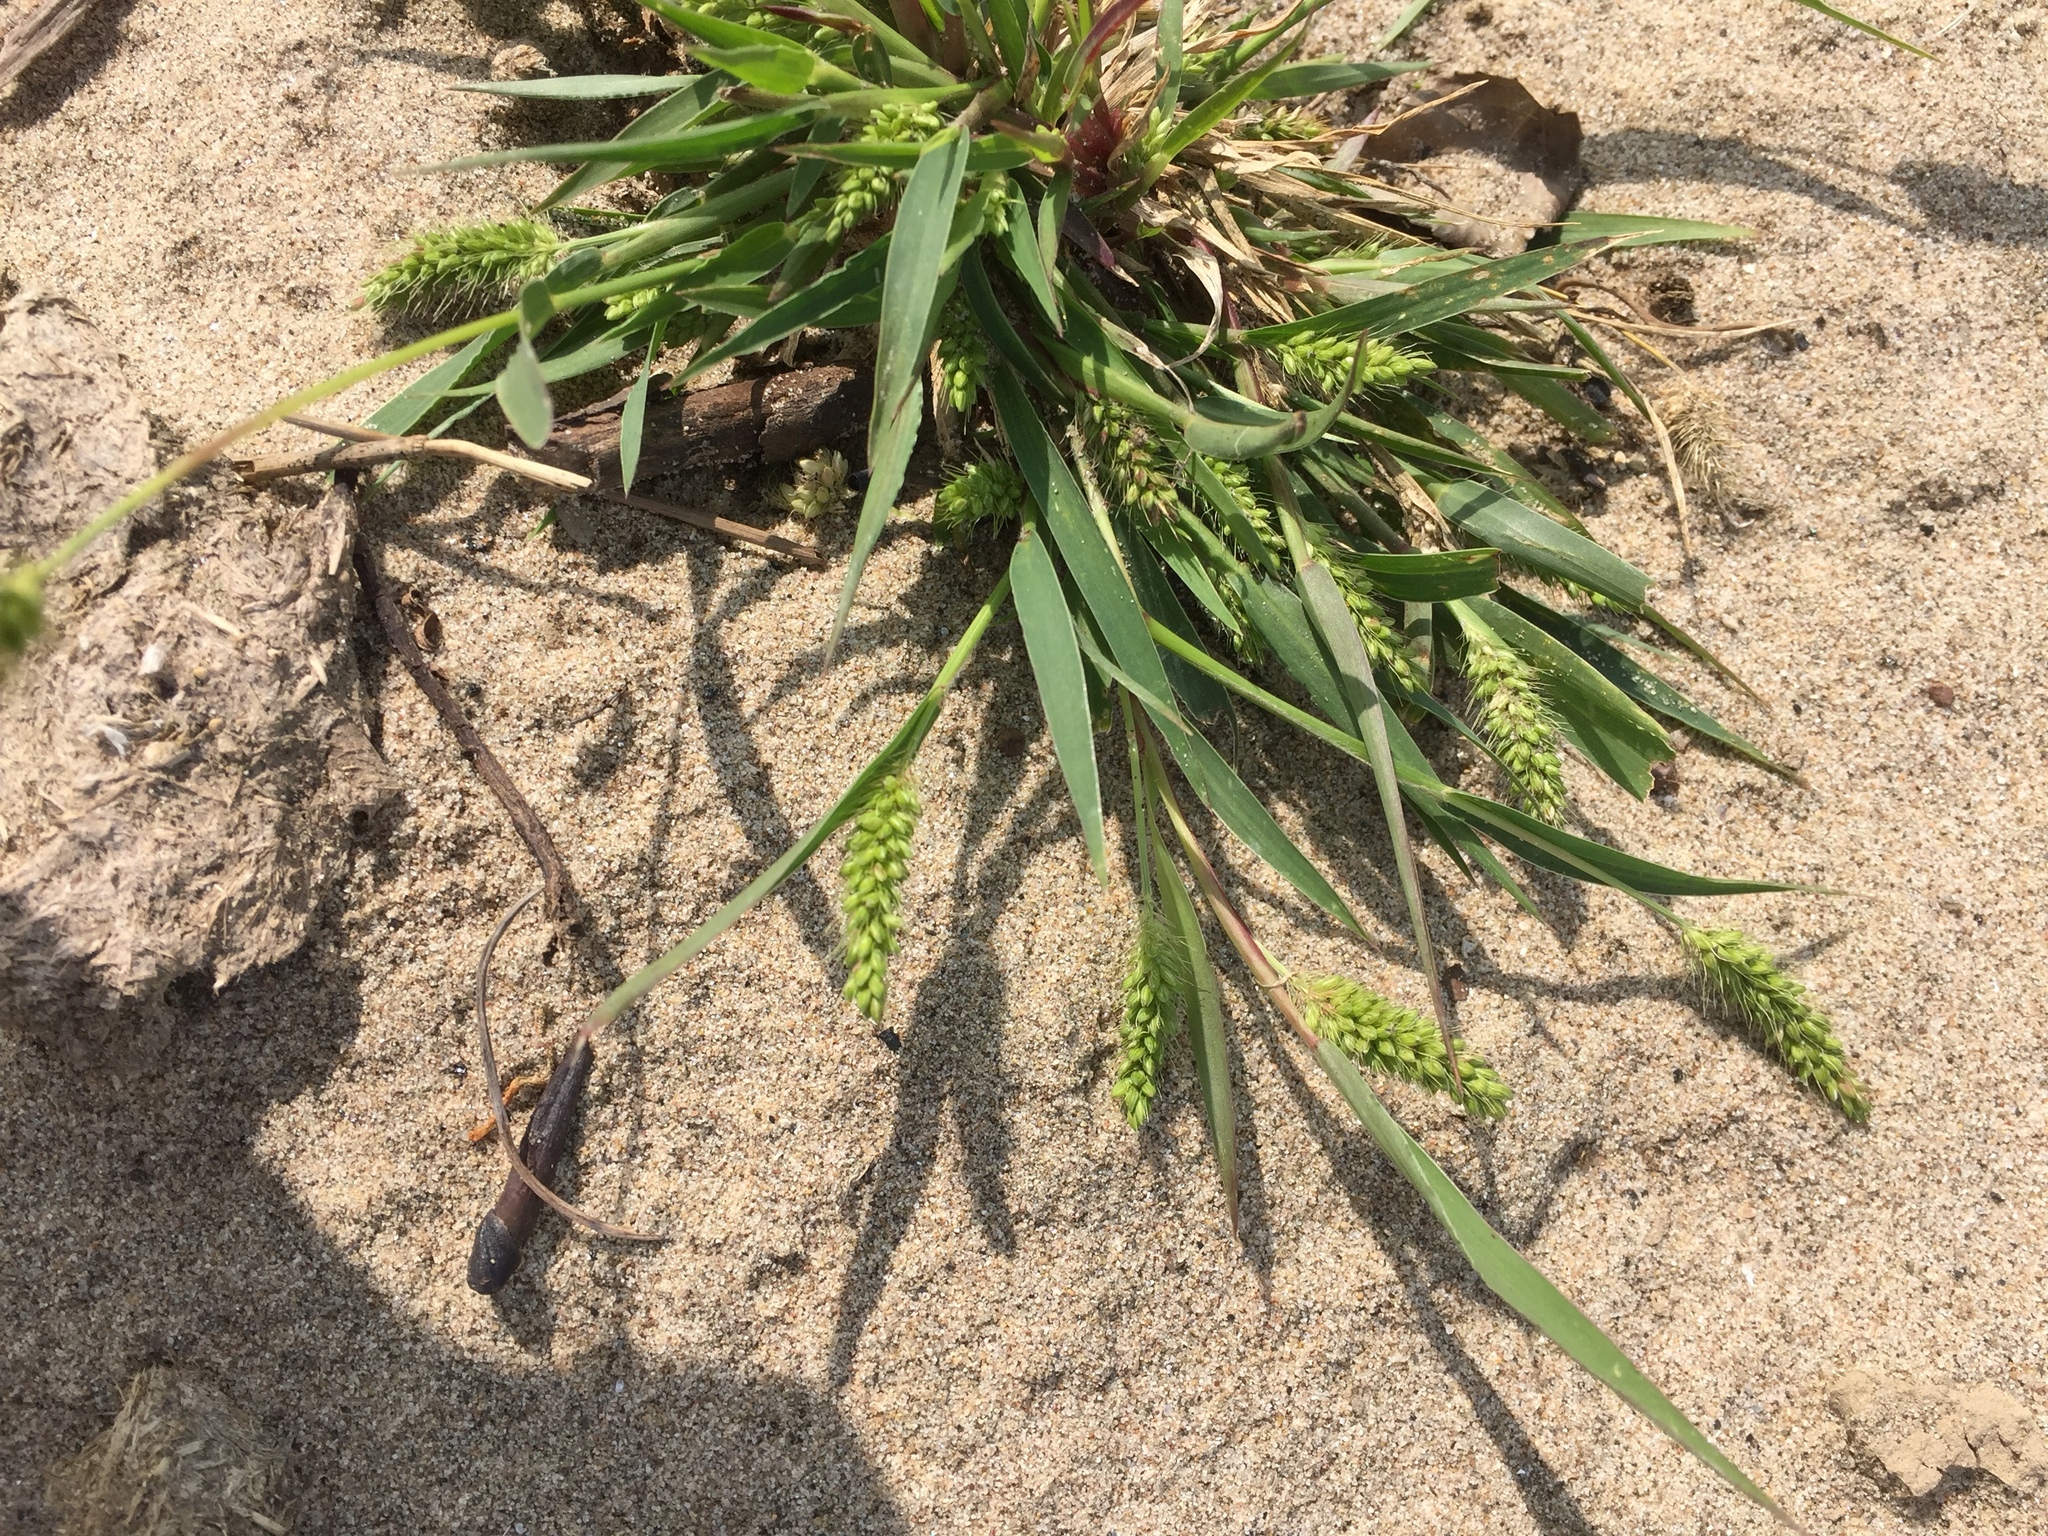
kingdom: Plantae
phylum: Tracheophyta
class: Liliopsida
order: Poales
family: Poaceae
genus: Setaria
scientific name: Setaria viridis
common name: Green bristlegrass
